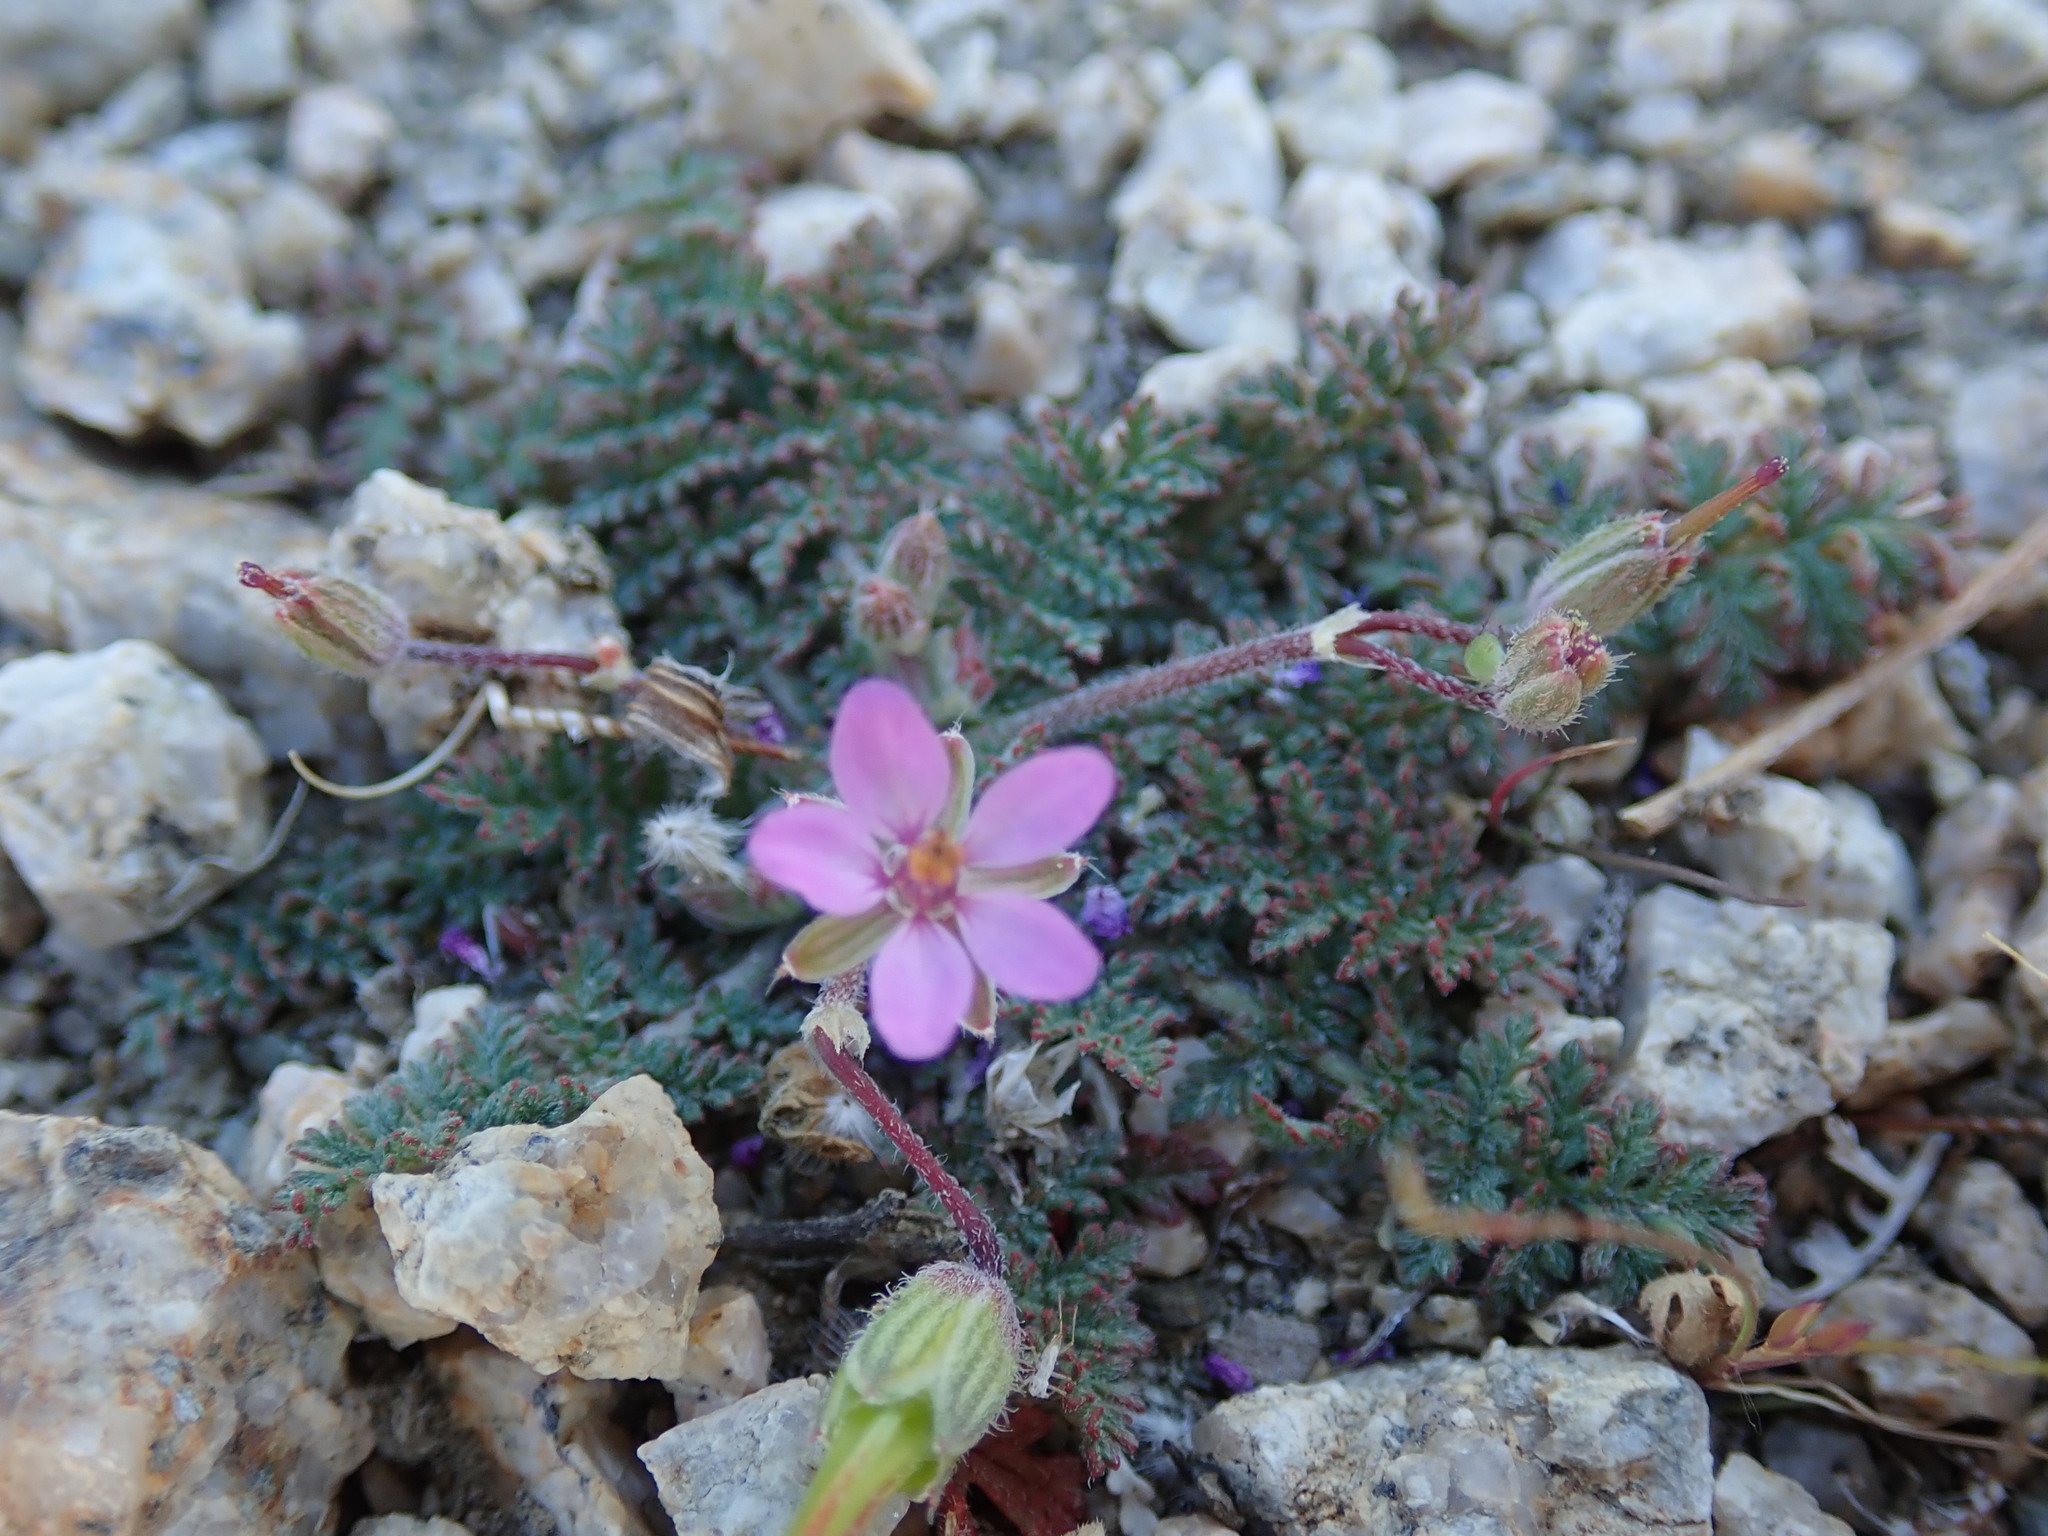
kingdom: Plantae
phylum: Tracheophyta
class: Magnoliopsida
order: Geraniales
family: Geraniaceae
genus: Erodium
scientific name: Erodium cicutarium
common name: Common stork's-bill
